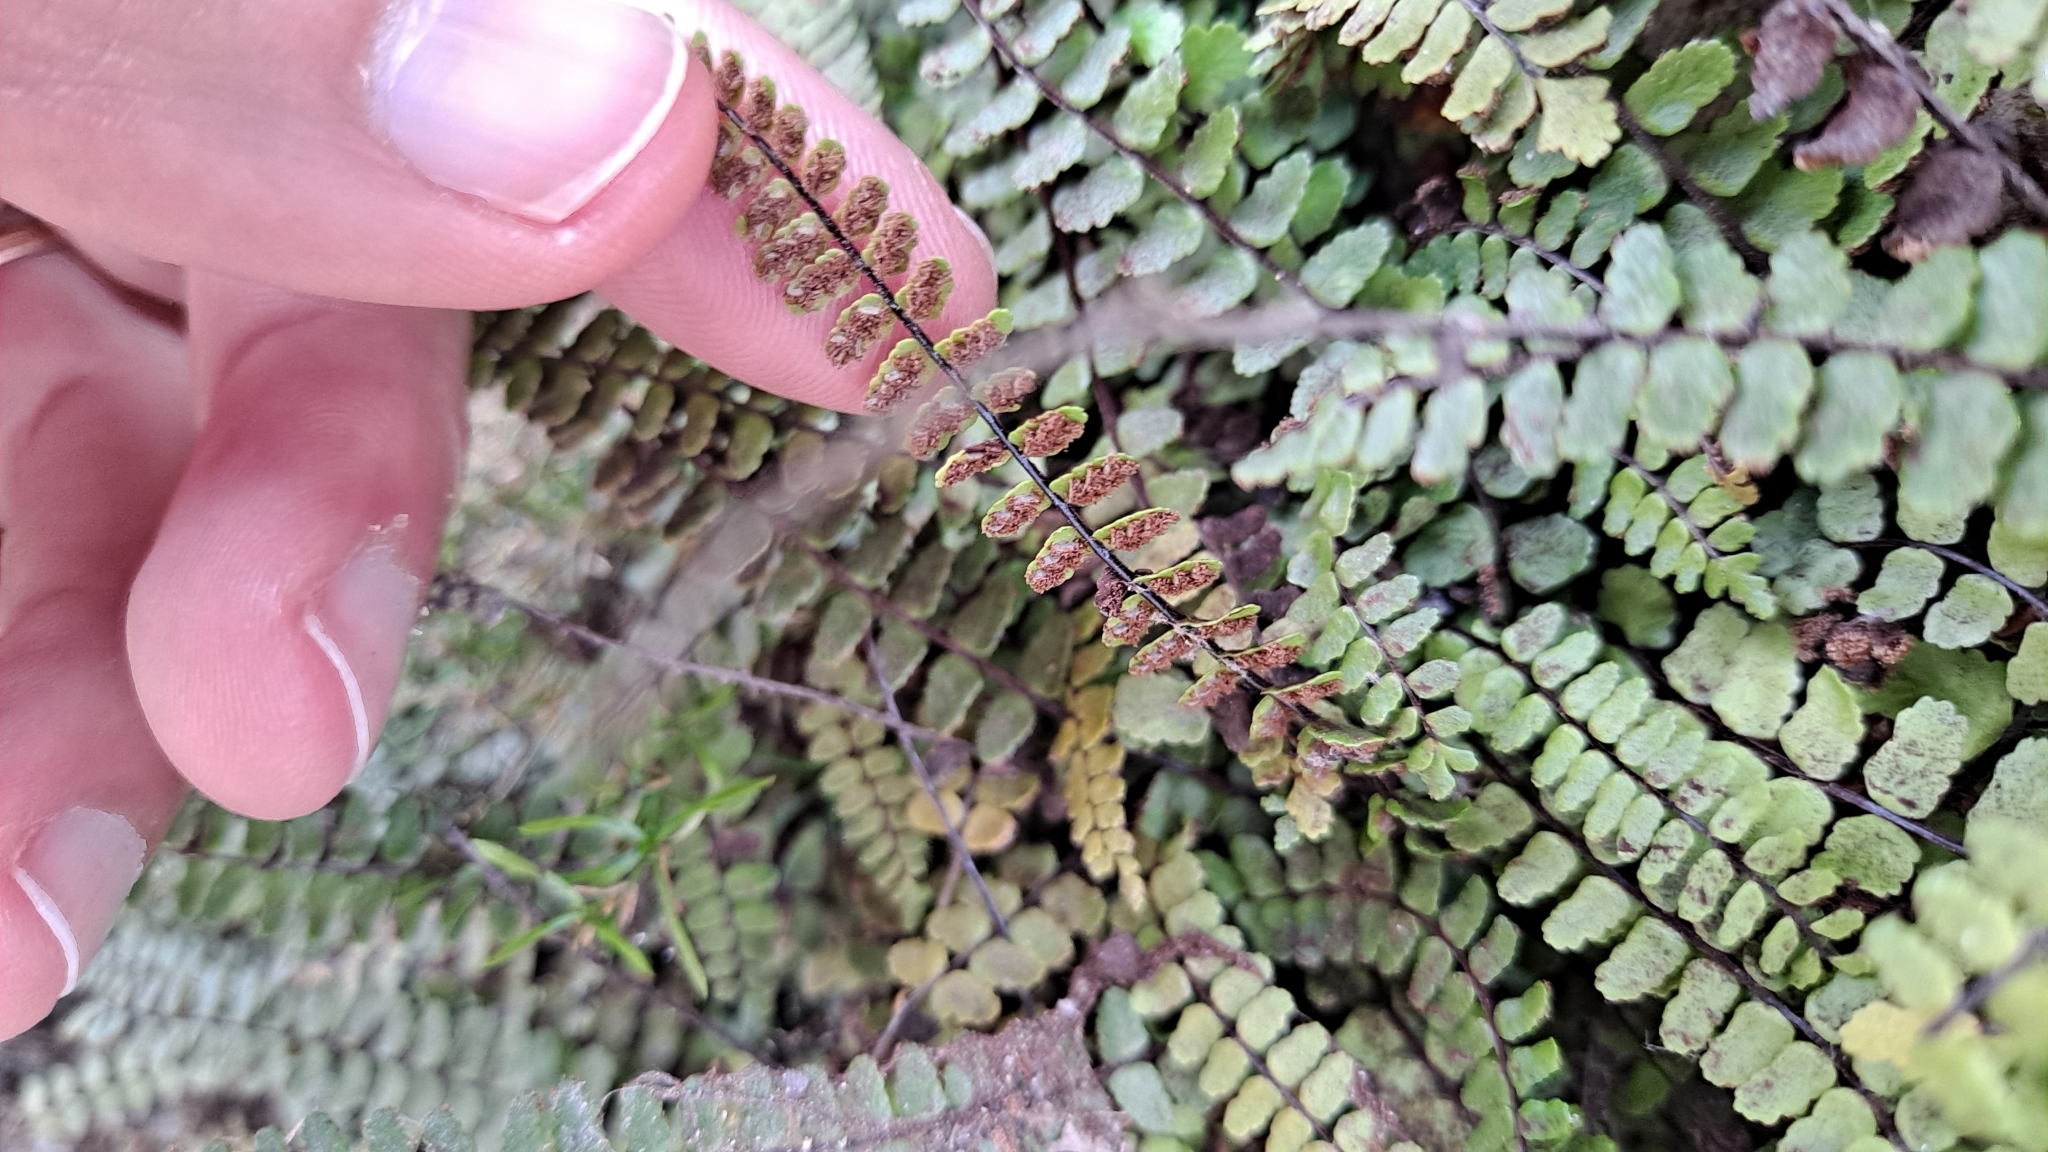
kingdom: Plantae
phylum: Tracheophyta
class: Polypodiopsida
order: Polypodiales
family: Aspleniaceae
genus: Asplenium
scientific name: Asplenium trichomanes
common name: Maidenhair spleenwort
